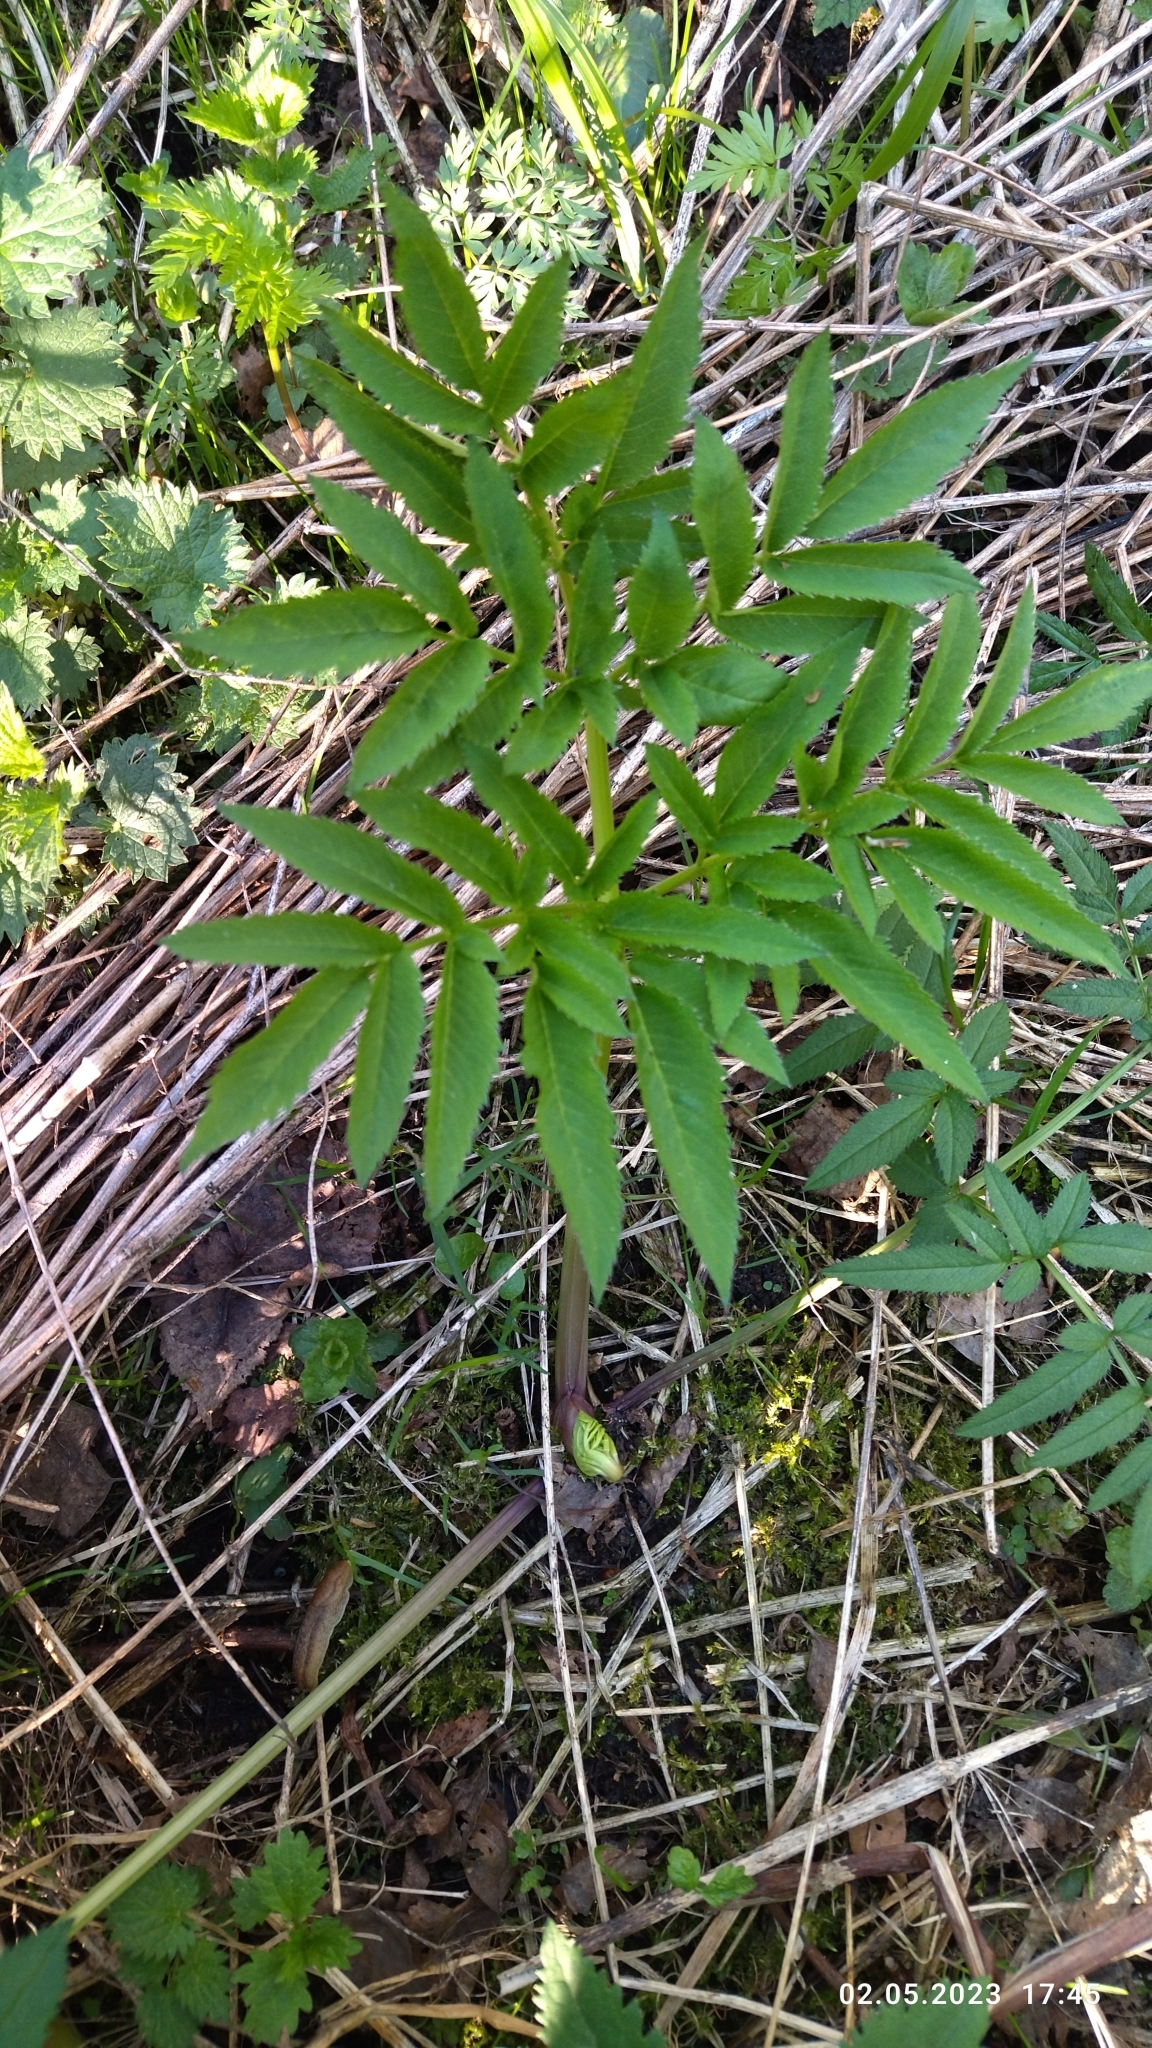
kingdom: Plantae
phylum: Tracheophyta
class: Magnoliopsida
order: Apiales
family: Apiaceae
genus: Angelica
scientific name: Angelica sylvestris
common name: Wild angelica
